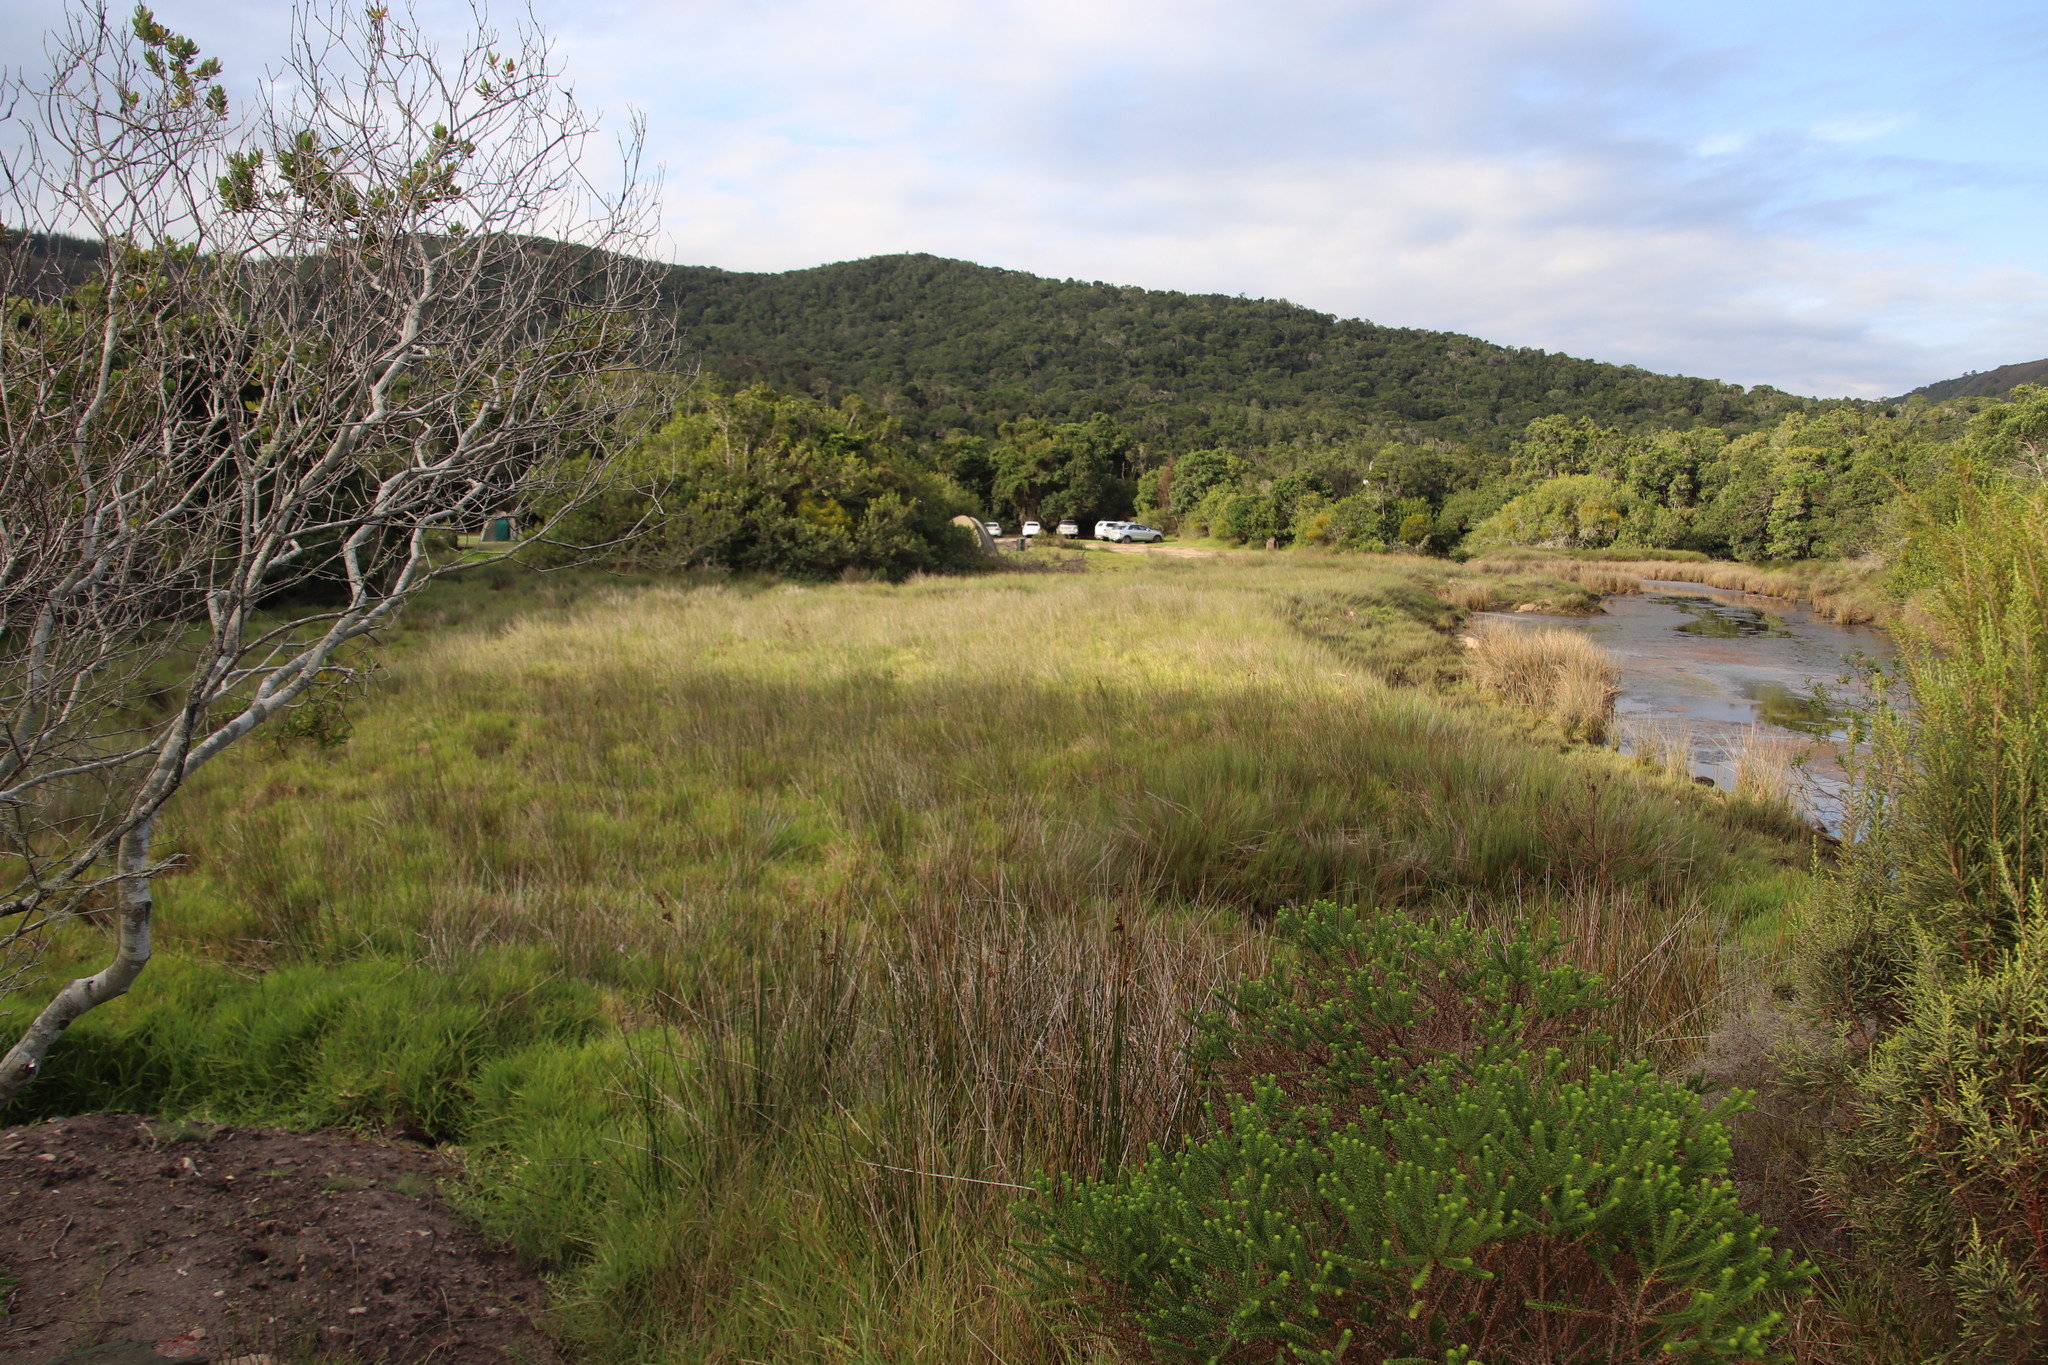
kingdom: Plantae
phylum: Tracheophyta
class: Liliopsida
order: Poales
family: Juncaceae
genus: Juncus
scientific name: Juncus kraussii
